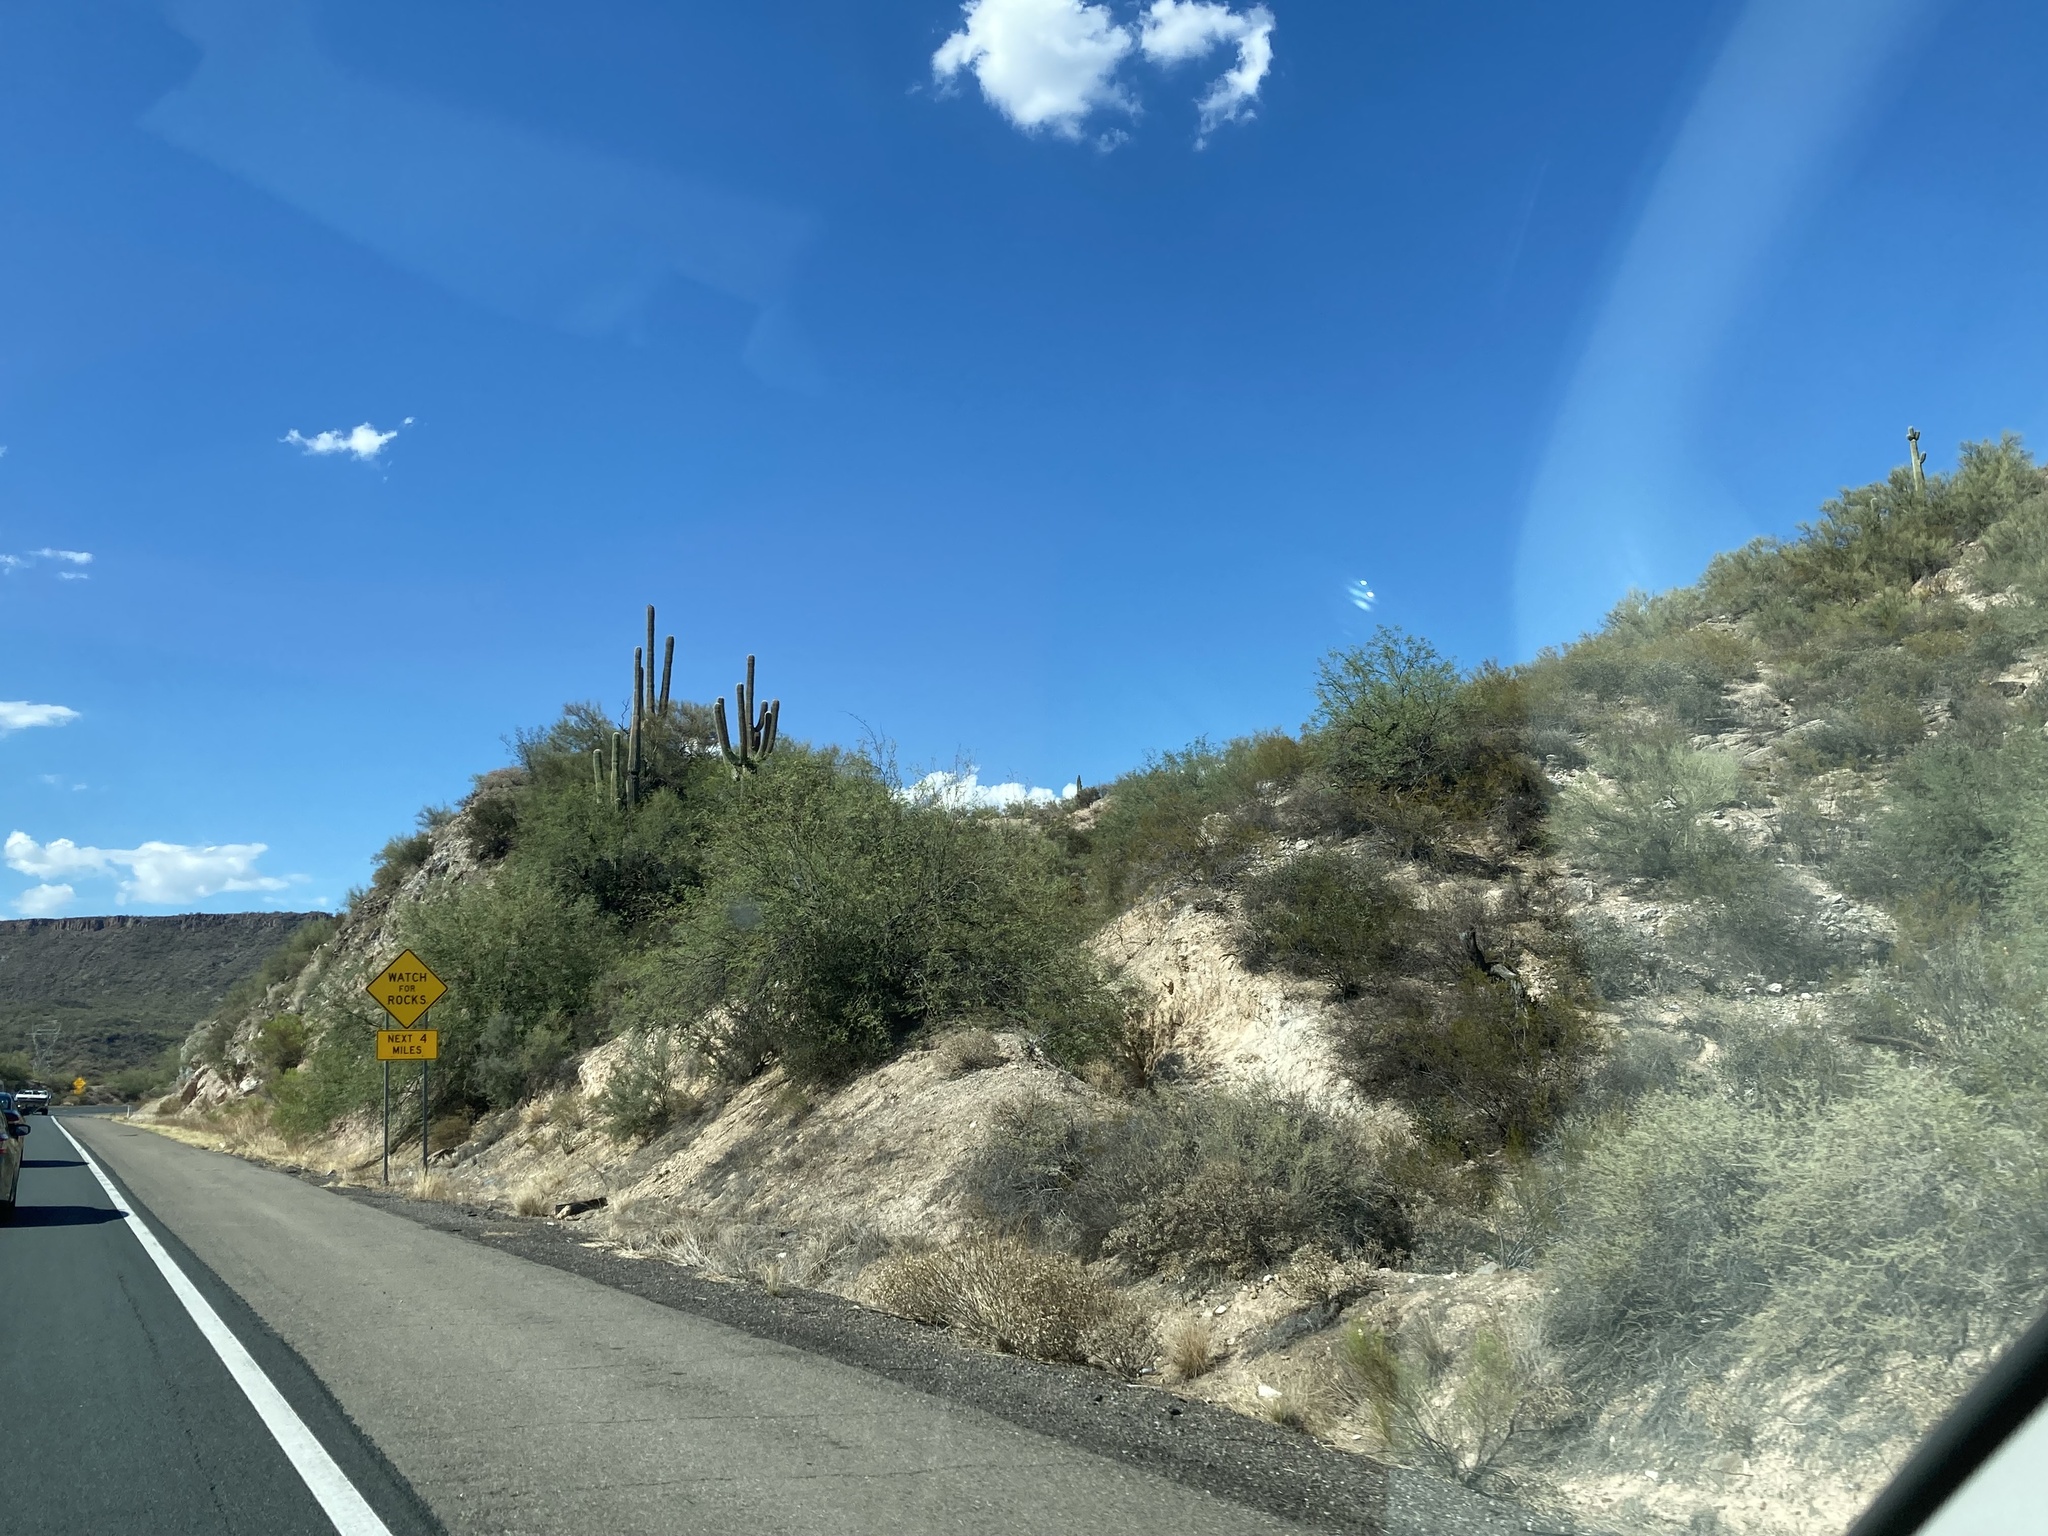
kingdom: Plantae
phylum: Tracheophyta
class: Magnoliopsida
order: Caryophyllales
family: Cactaceae
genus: Carnegiea
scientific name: Carnegiea gigantea
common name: Saguaro
